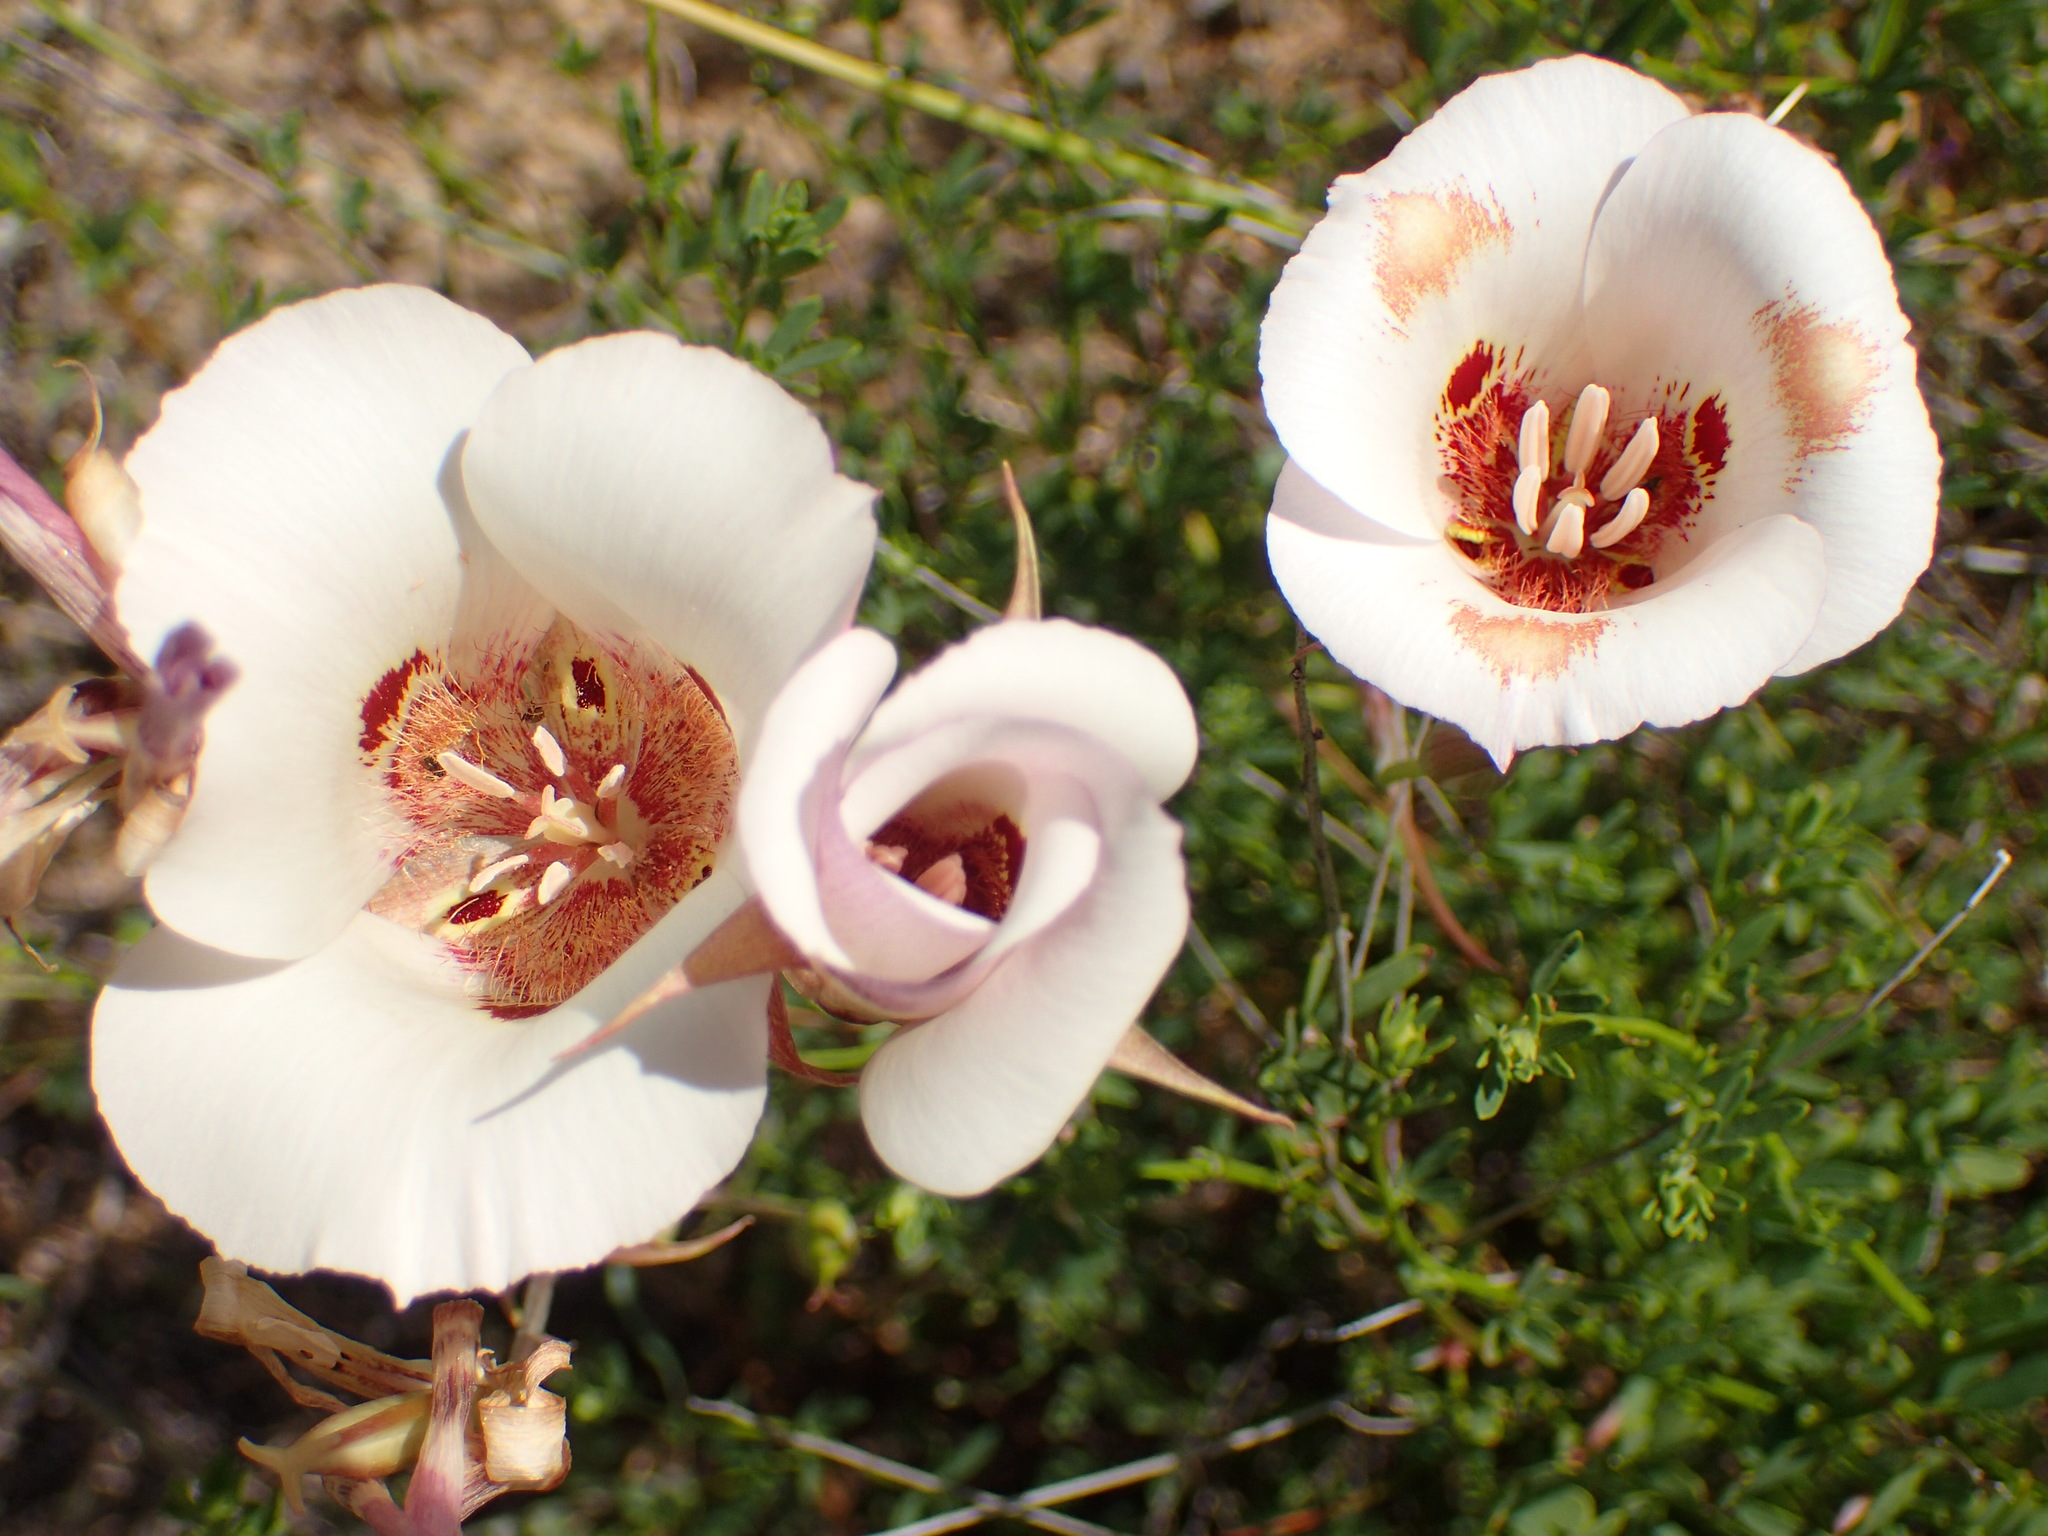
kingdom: Plantae
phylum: Tracheophyta
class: Liliopsida
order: Liliales
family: Liliaceae
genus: Calochortus
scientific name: Calochortus venustus
